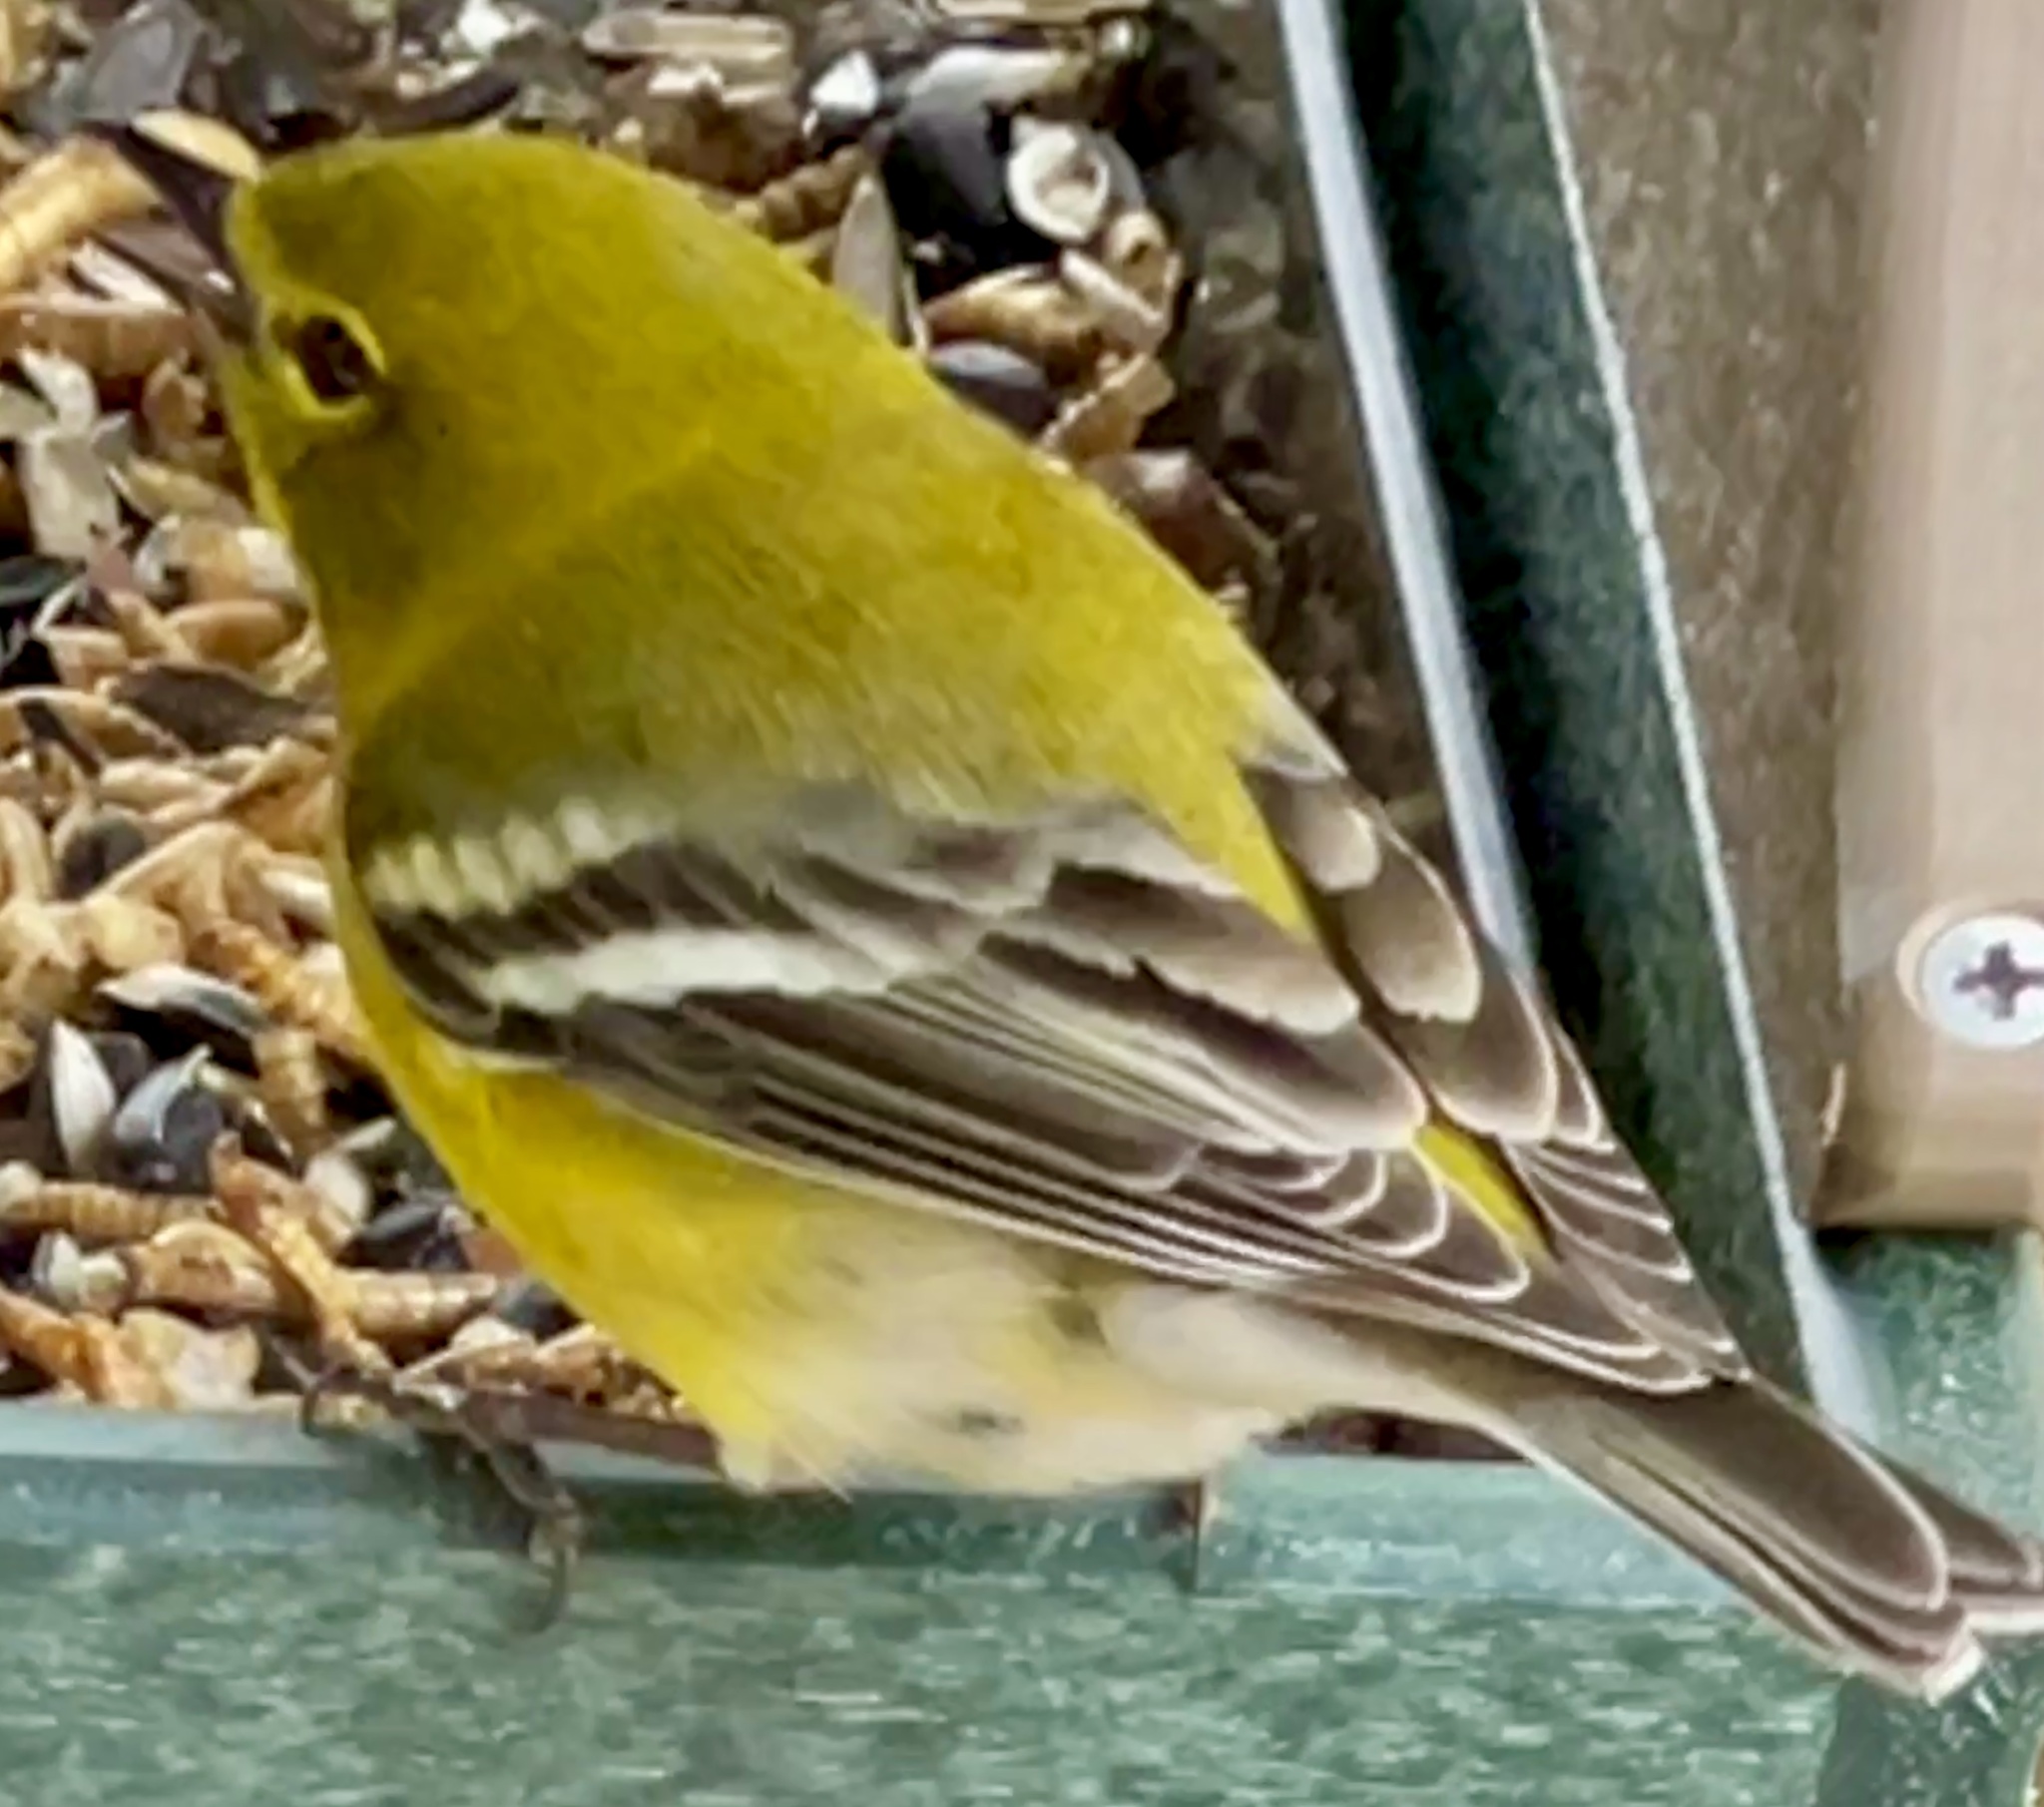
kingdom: Animalia
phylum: Chordata
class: Aves
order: Passeriformes
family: Parulidae
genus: Setophaga
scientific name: Setophaga pinus
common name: Pine warbler
